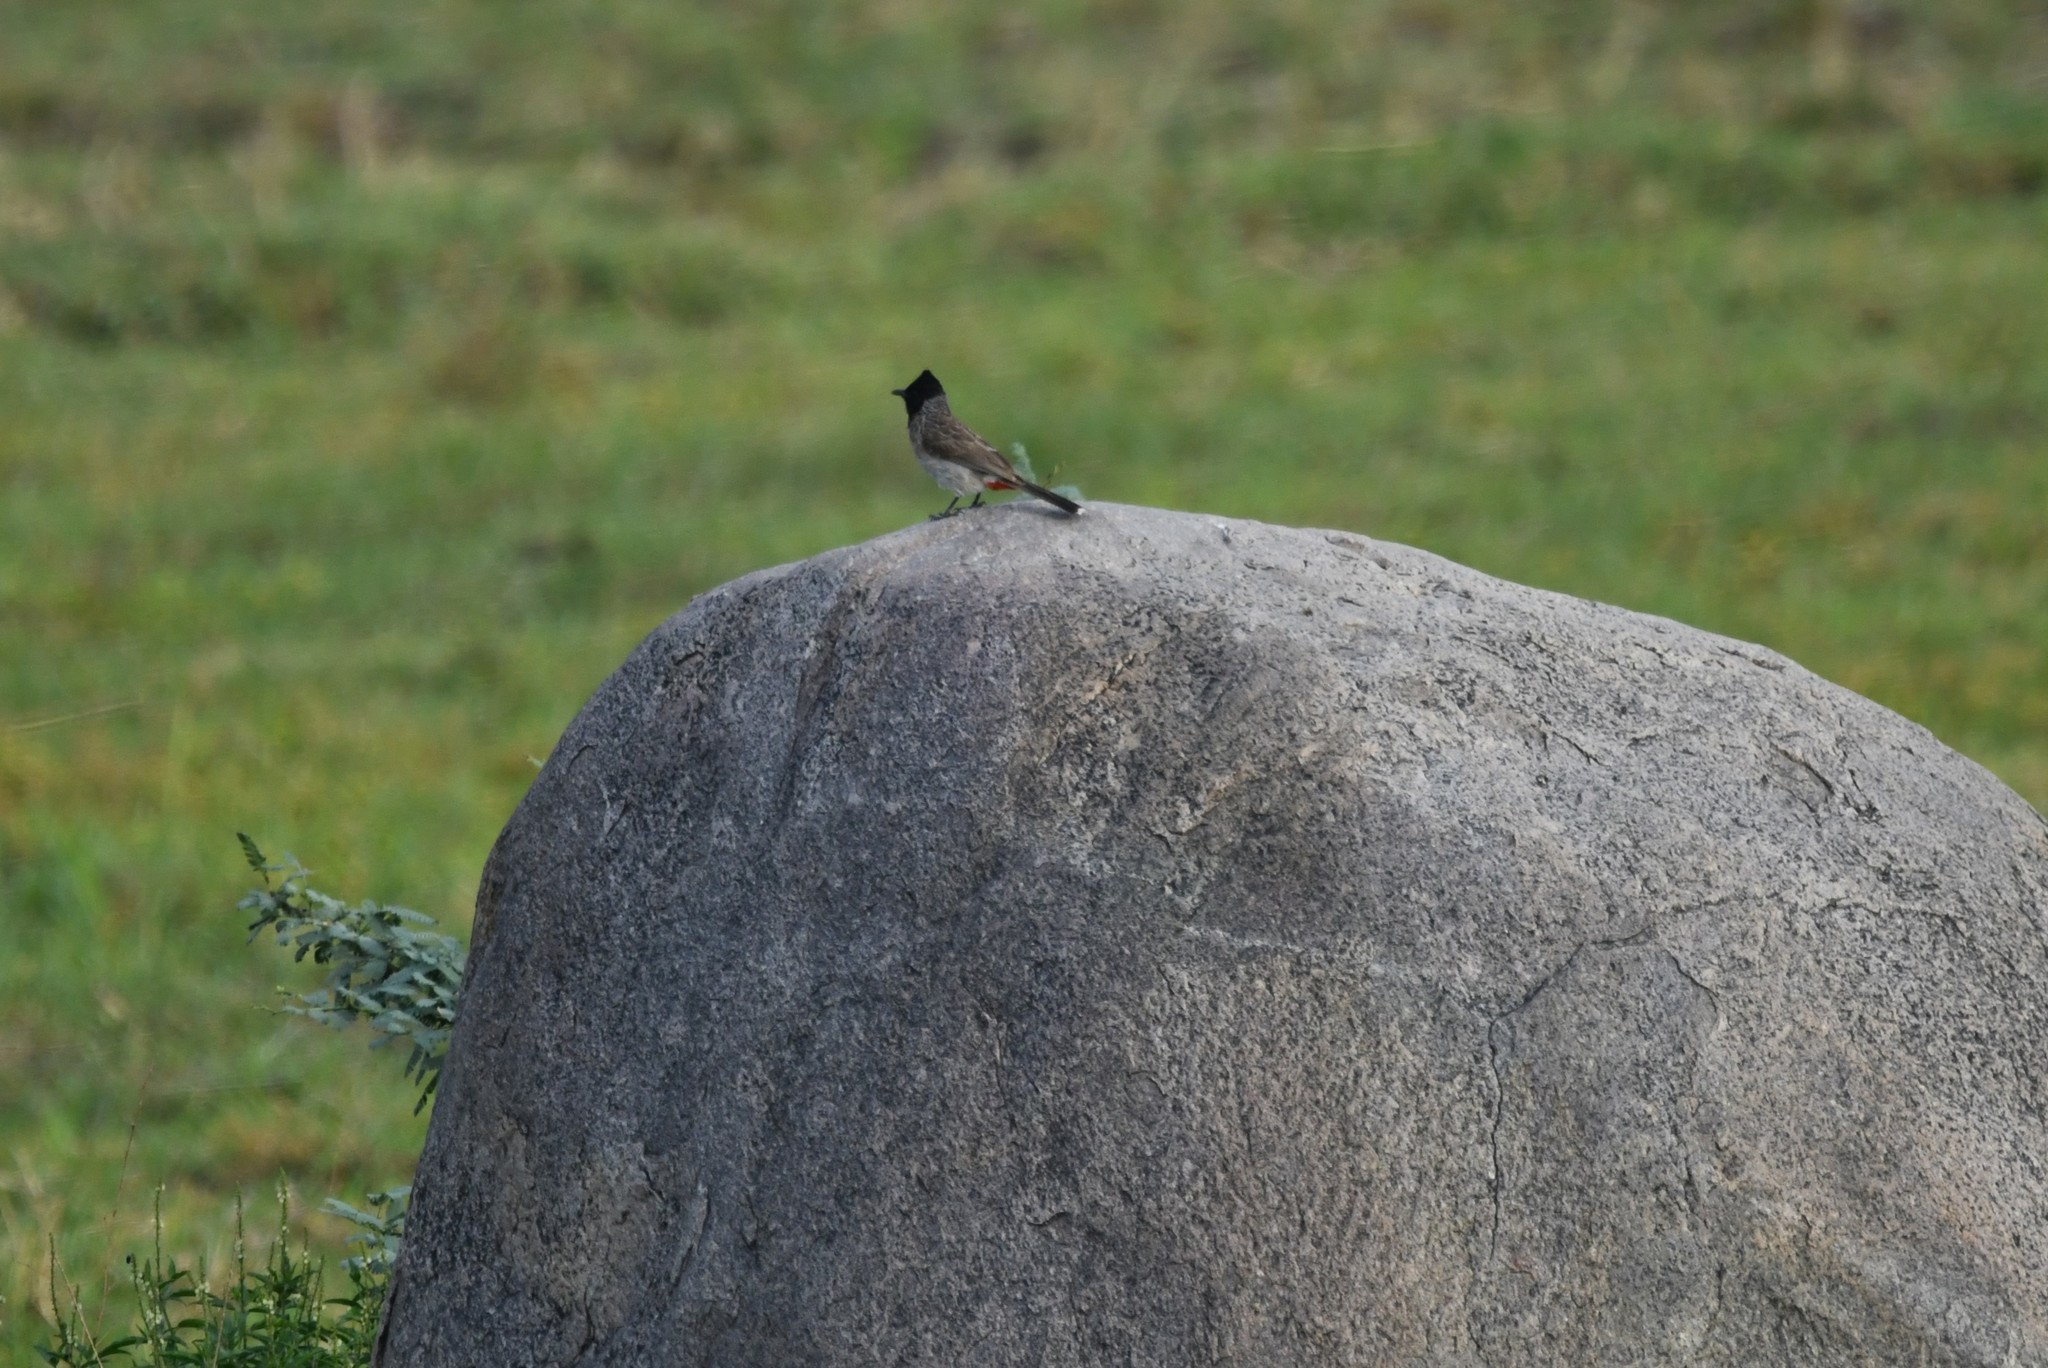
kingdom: Animalia
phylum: Chordata
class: Aves
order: Passeriformes
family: Pycnonotidae
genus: Pycnonotus
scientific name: Pycnonotus cafer
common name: Red-vented bulbul
